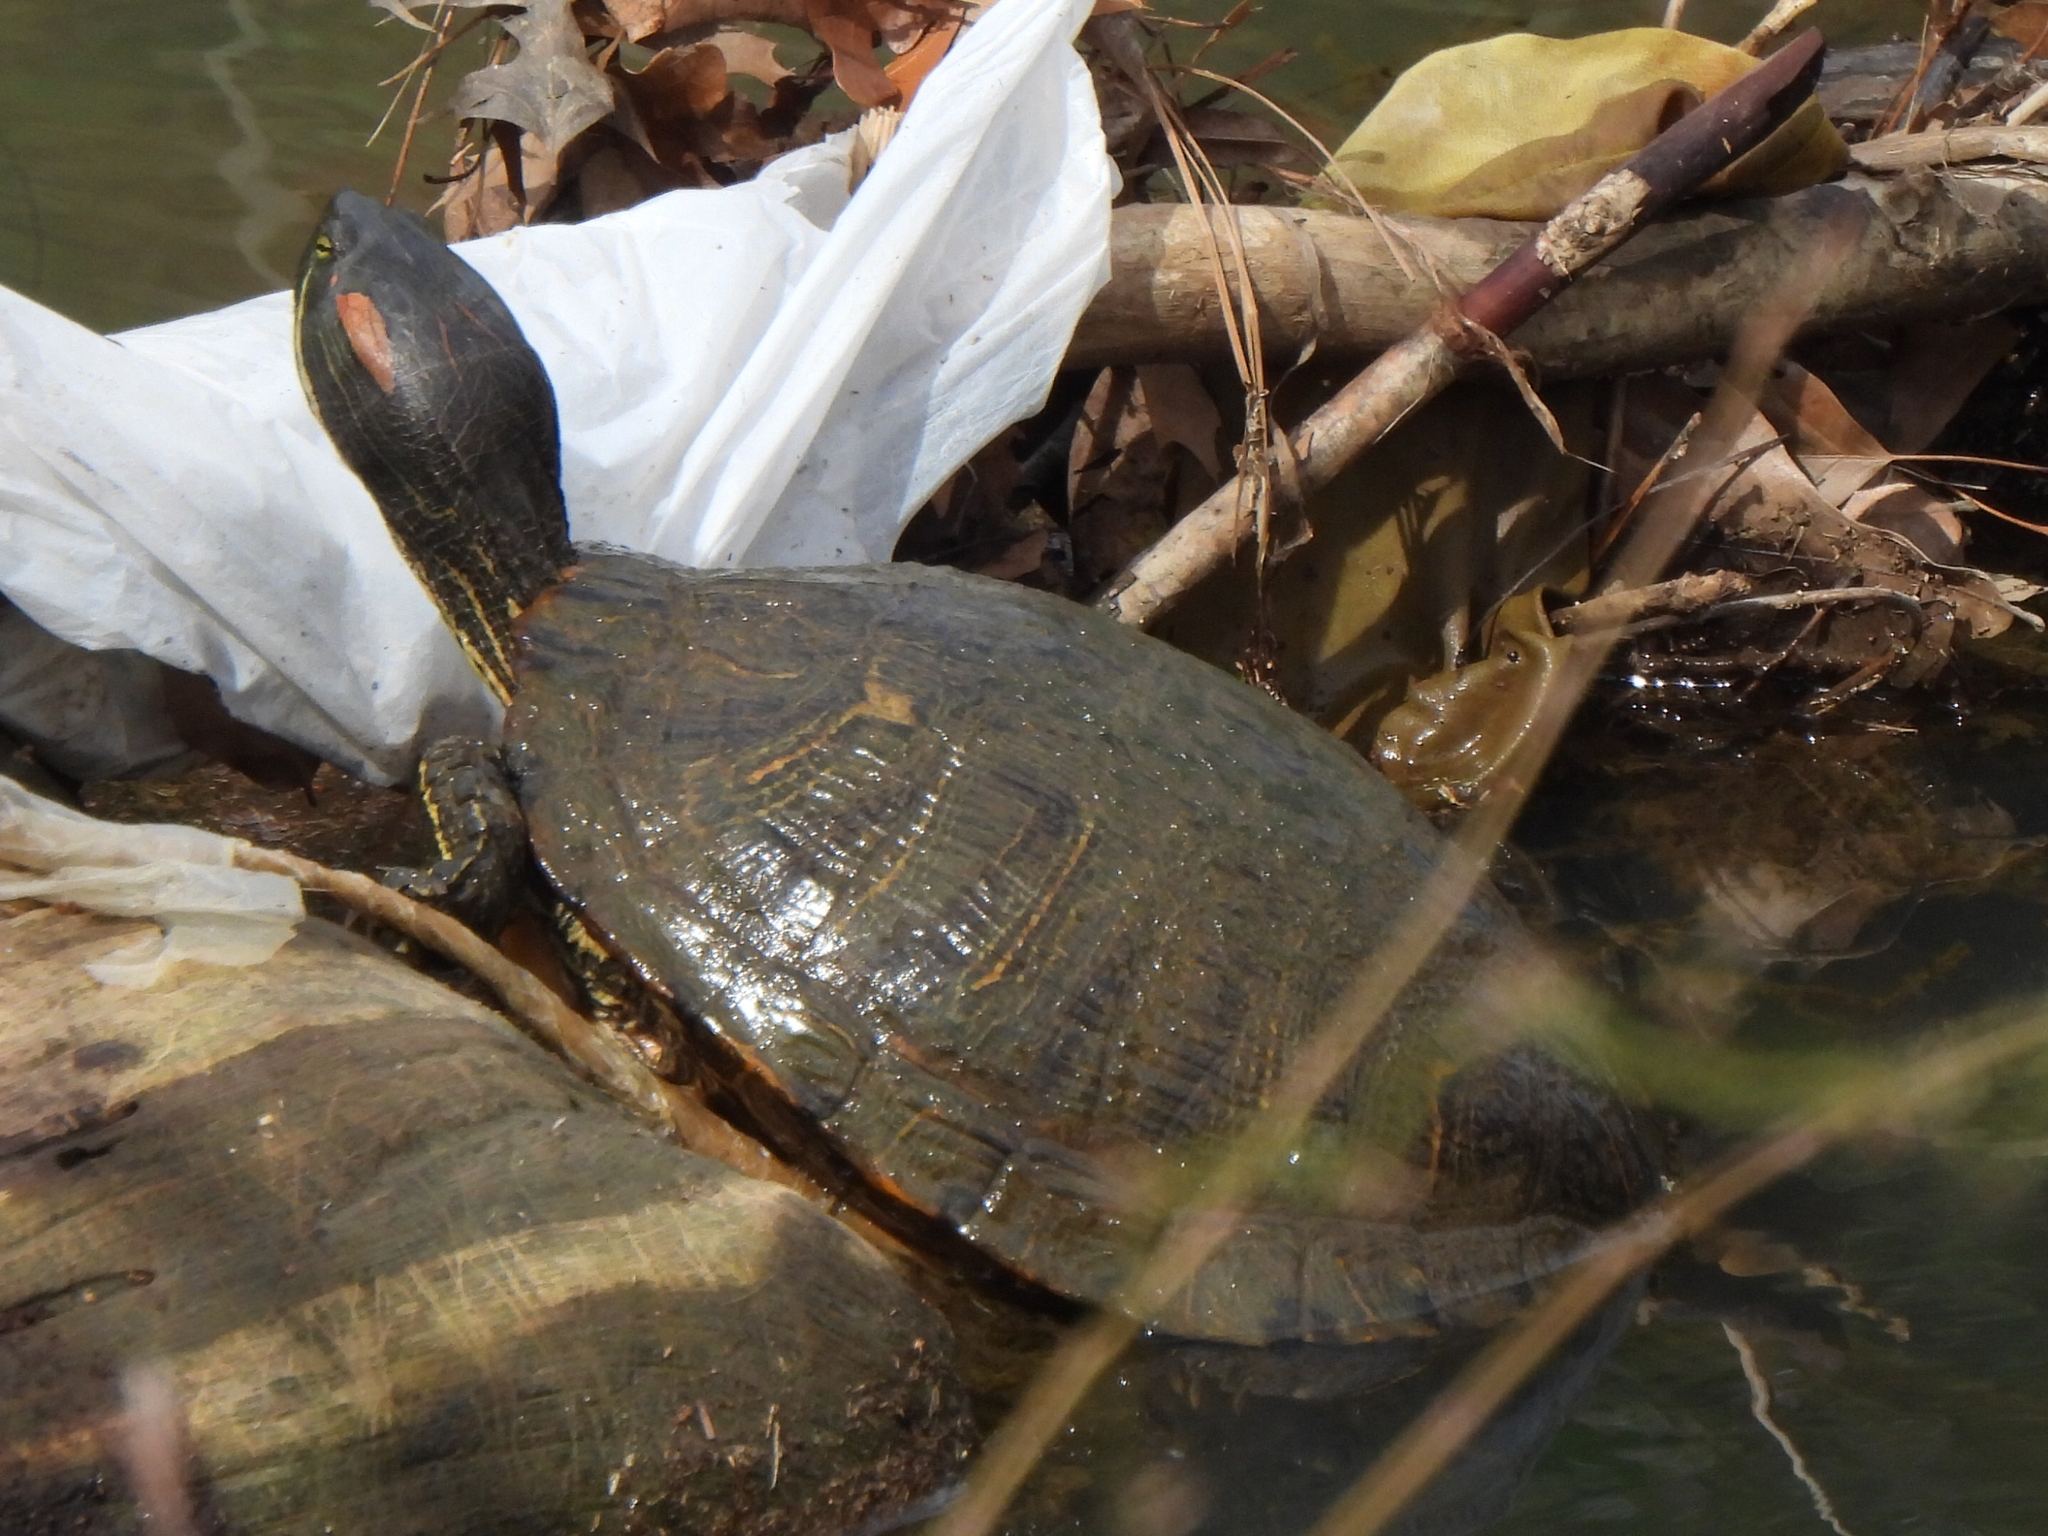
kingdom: Animalia
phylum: Chordata
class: Testudines
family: Emydidae
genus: Trachemys
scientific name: Trachemys scripta
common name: Slider
